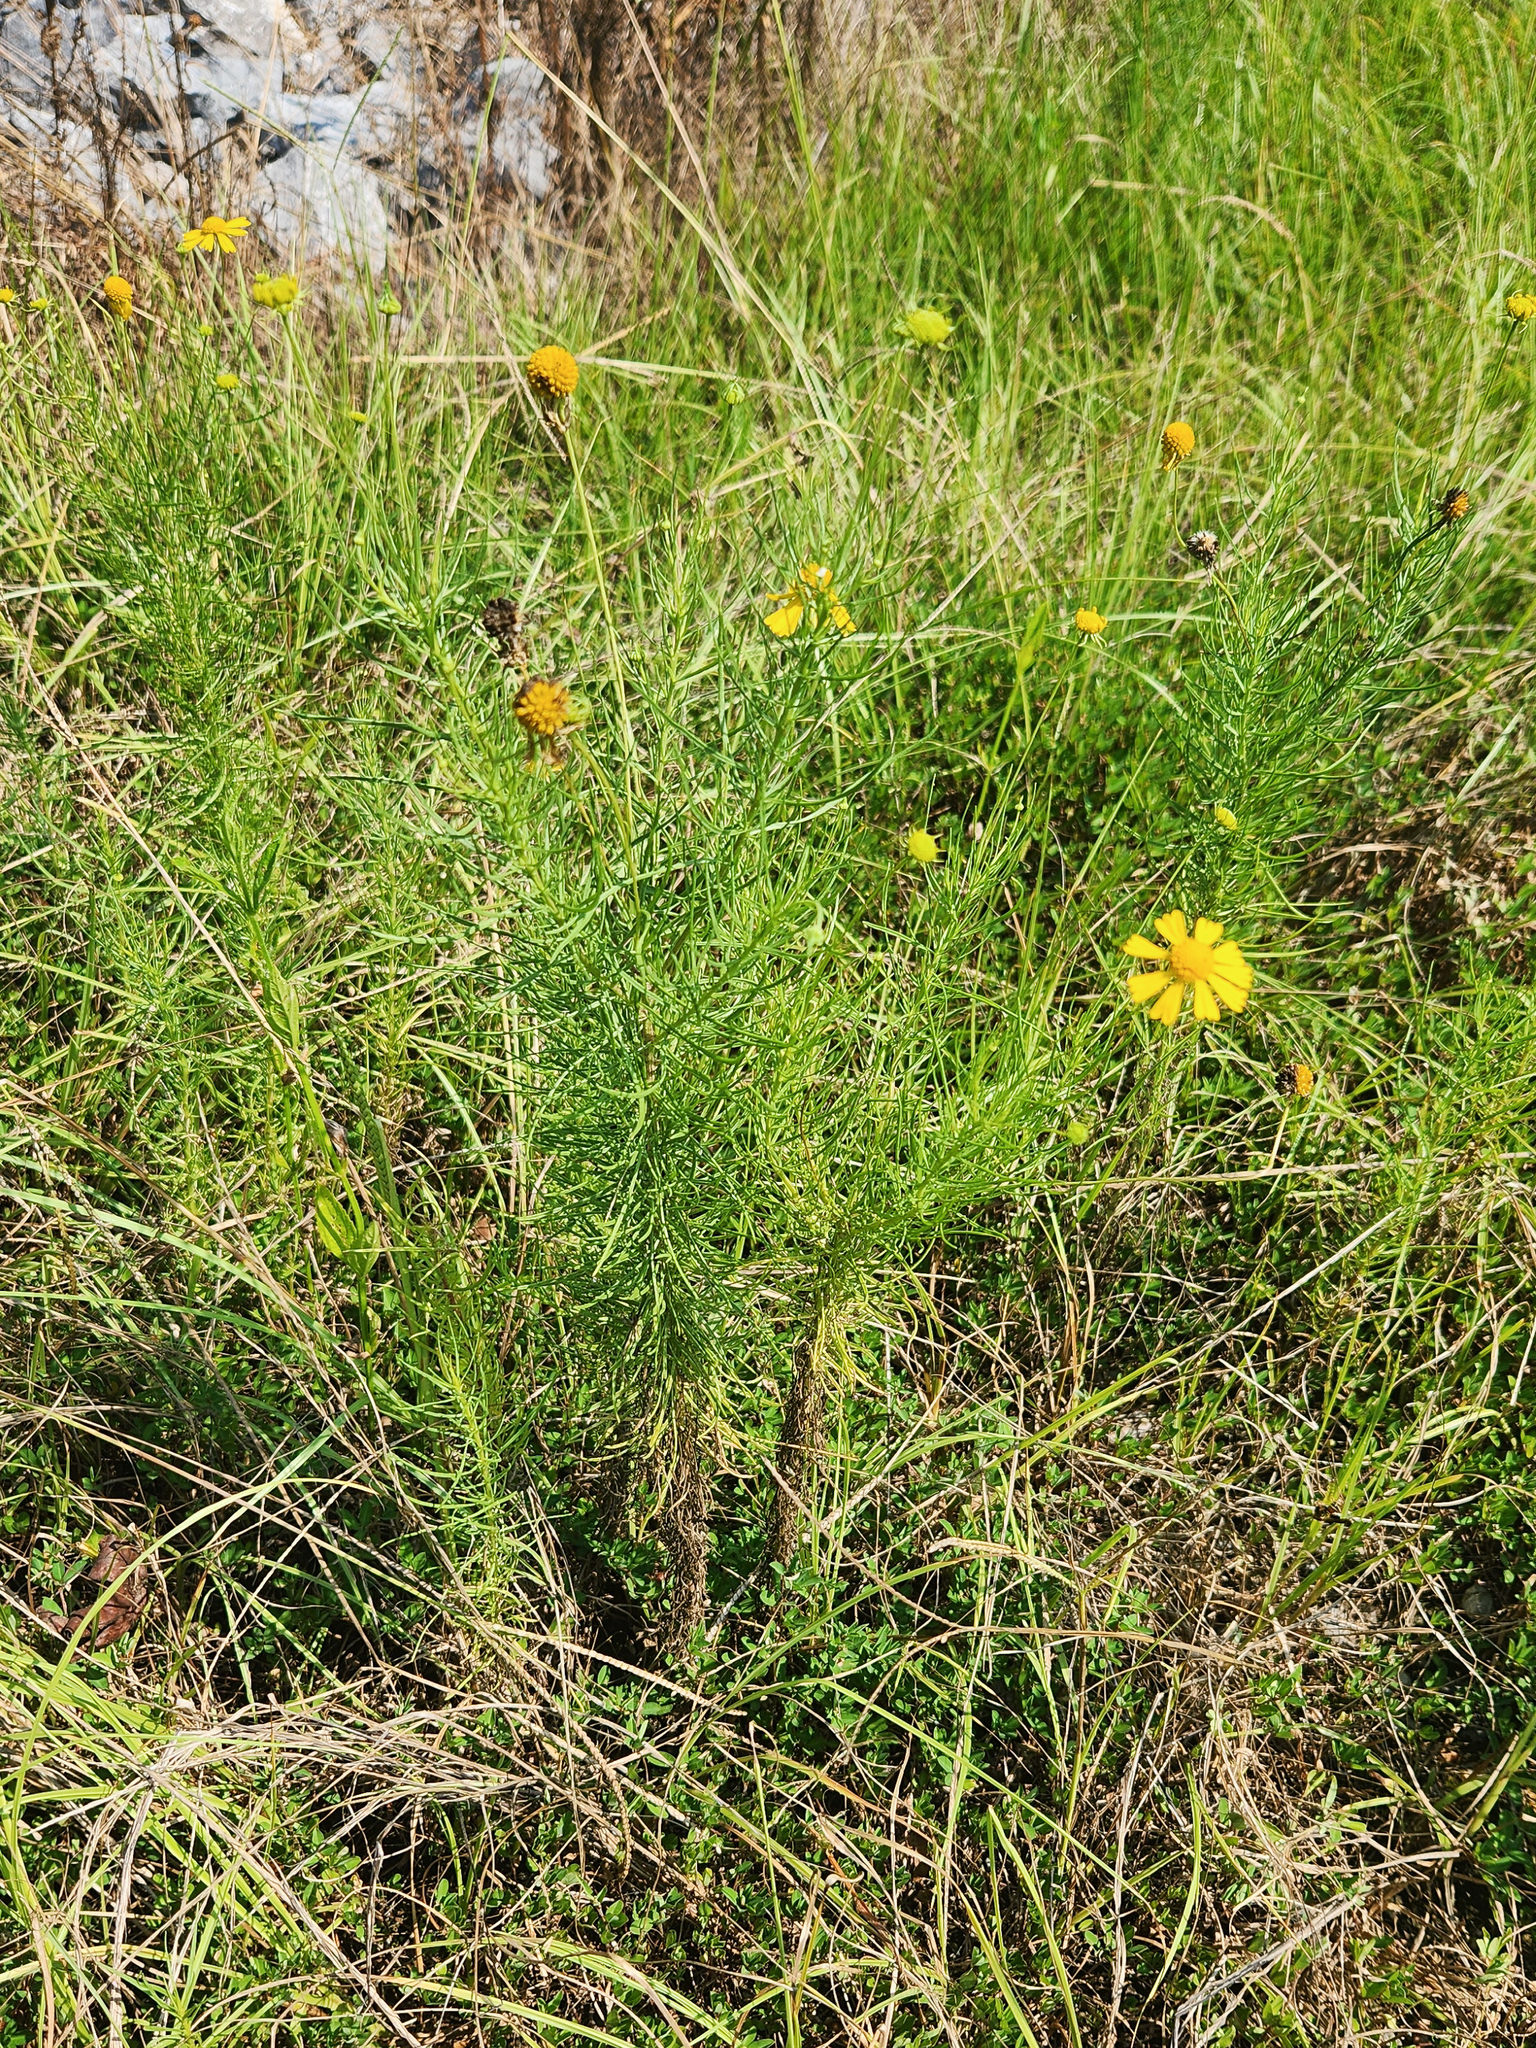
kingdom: Plantae
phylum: Tracheophyta
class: Magnoliopsida
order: Asterales
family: Asteraceae
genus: Helenium
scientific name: Helenium amarum
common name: Bitter sneezeweed
